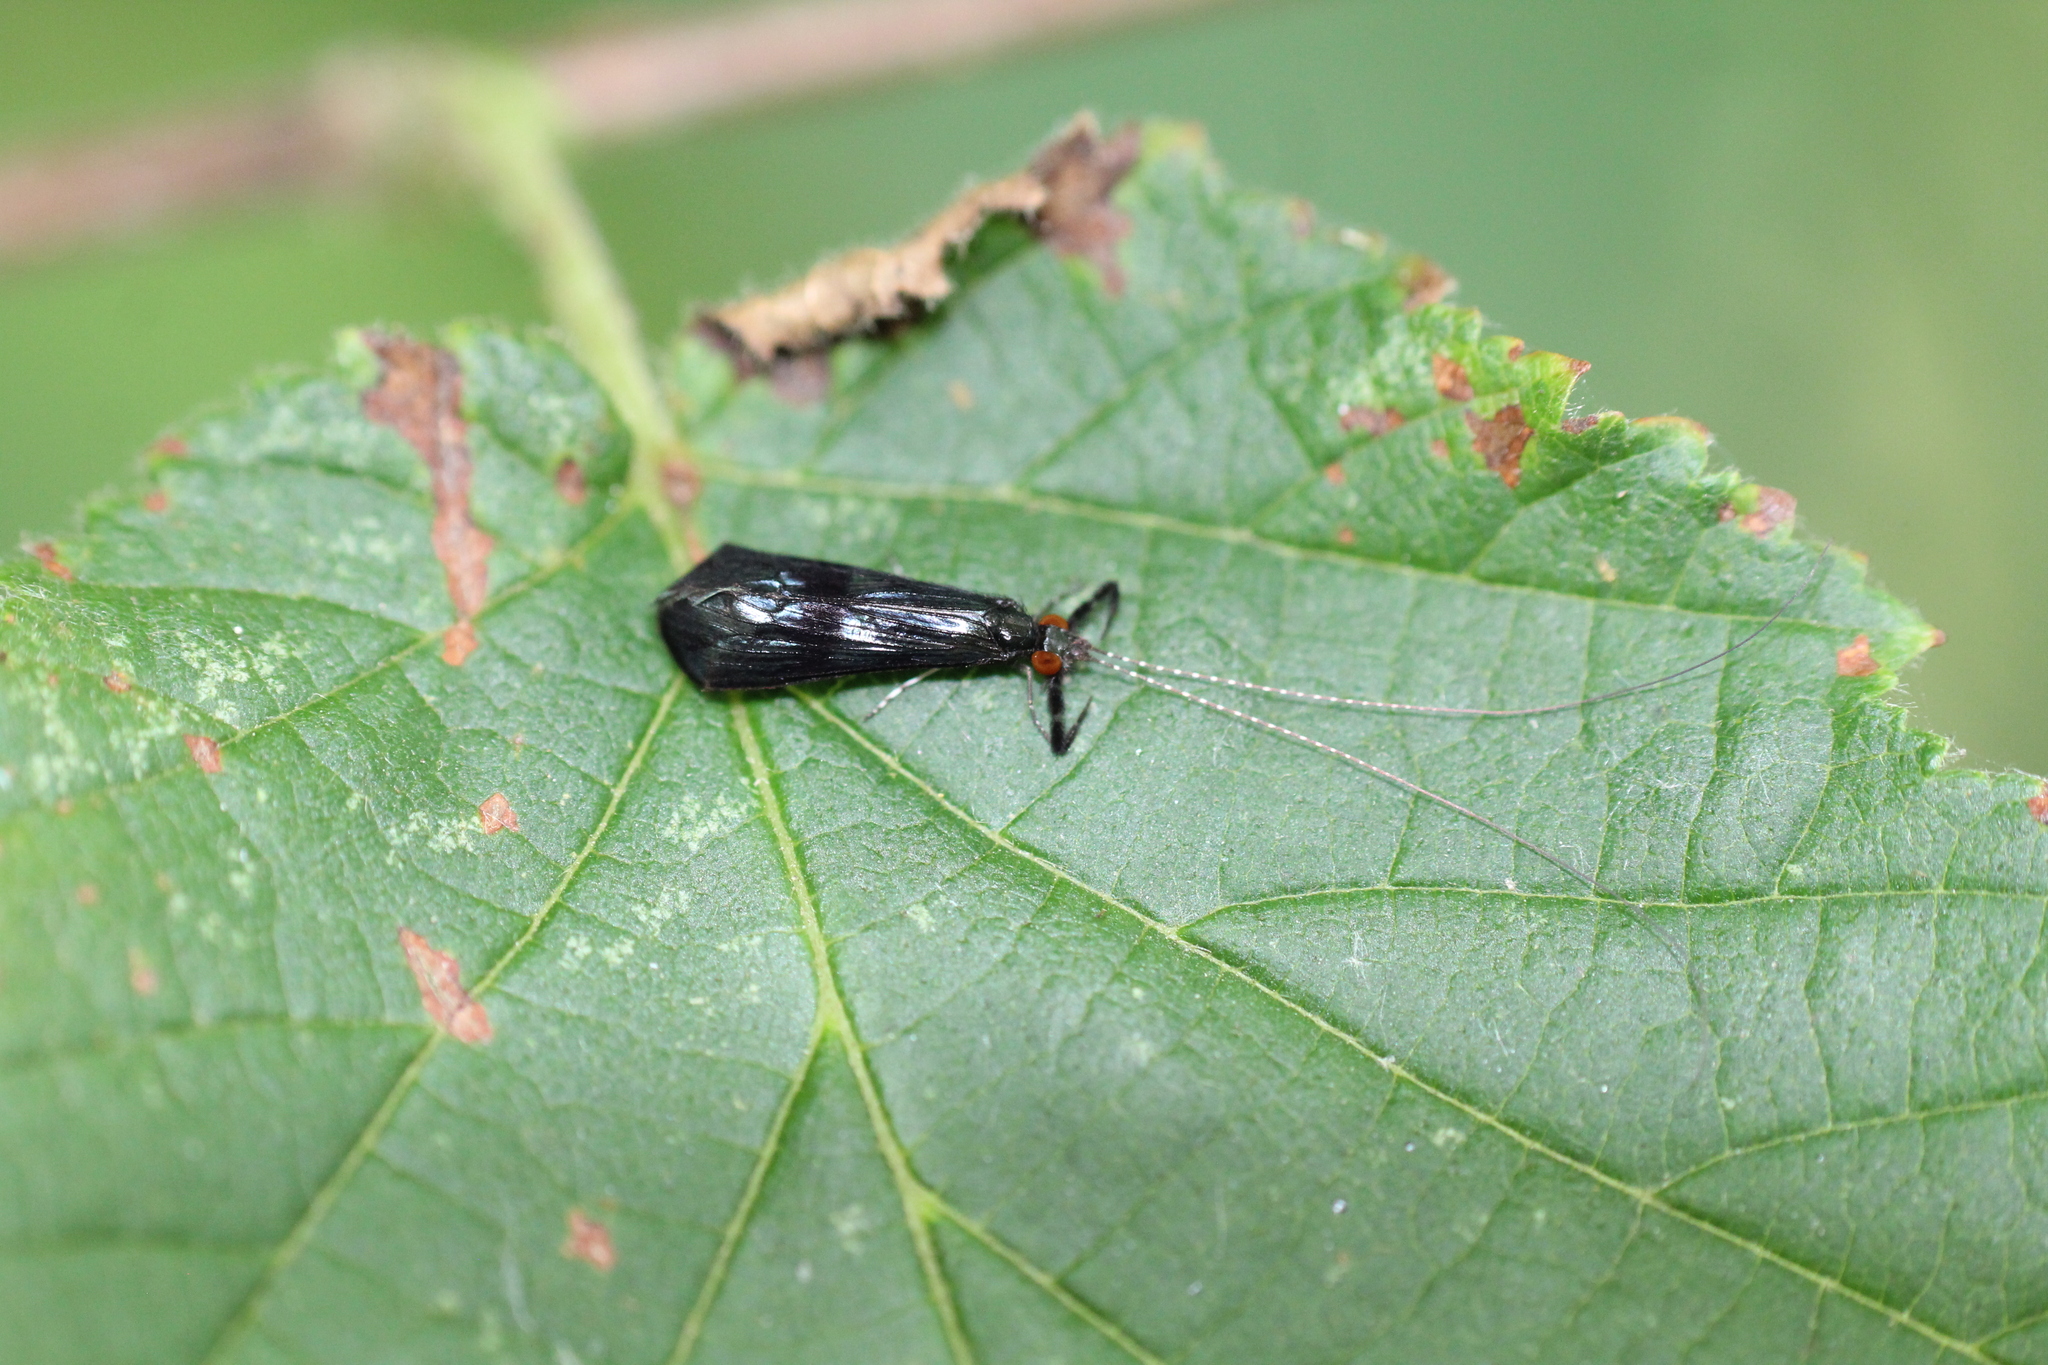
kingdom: Animalia
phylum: Arthropoda
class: Insecta
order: Trichoptera
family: Leptoceridae
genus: Mystacides
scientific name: Mystacides azureus
